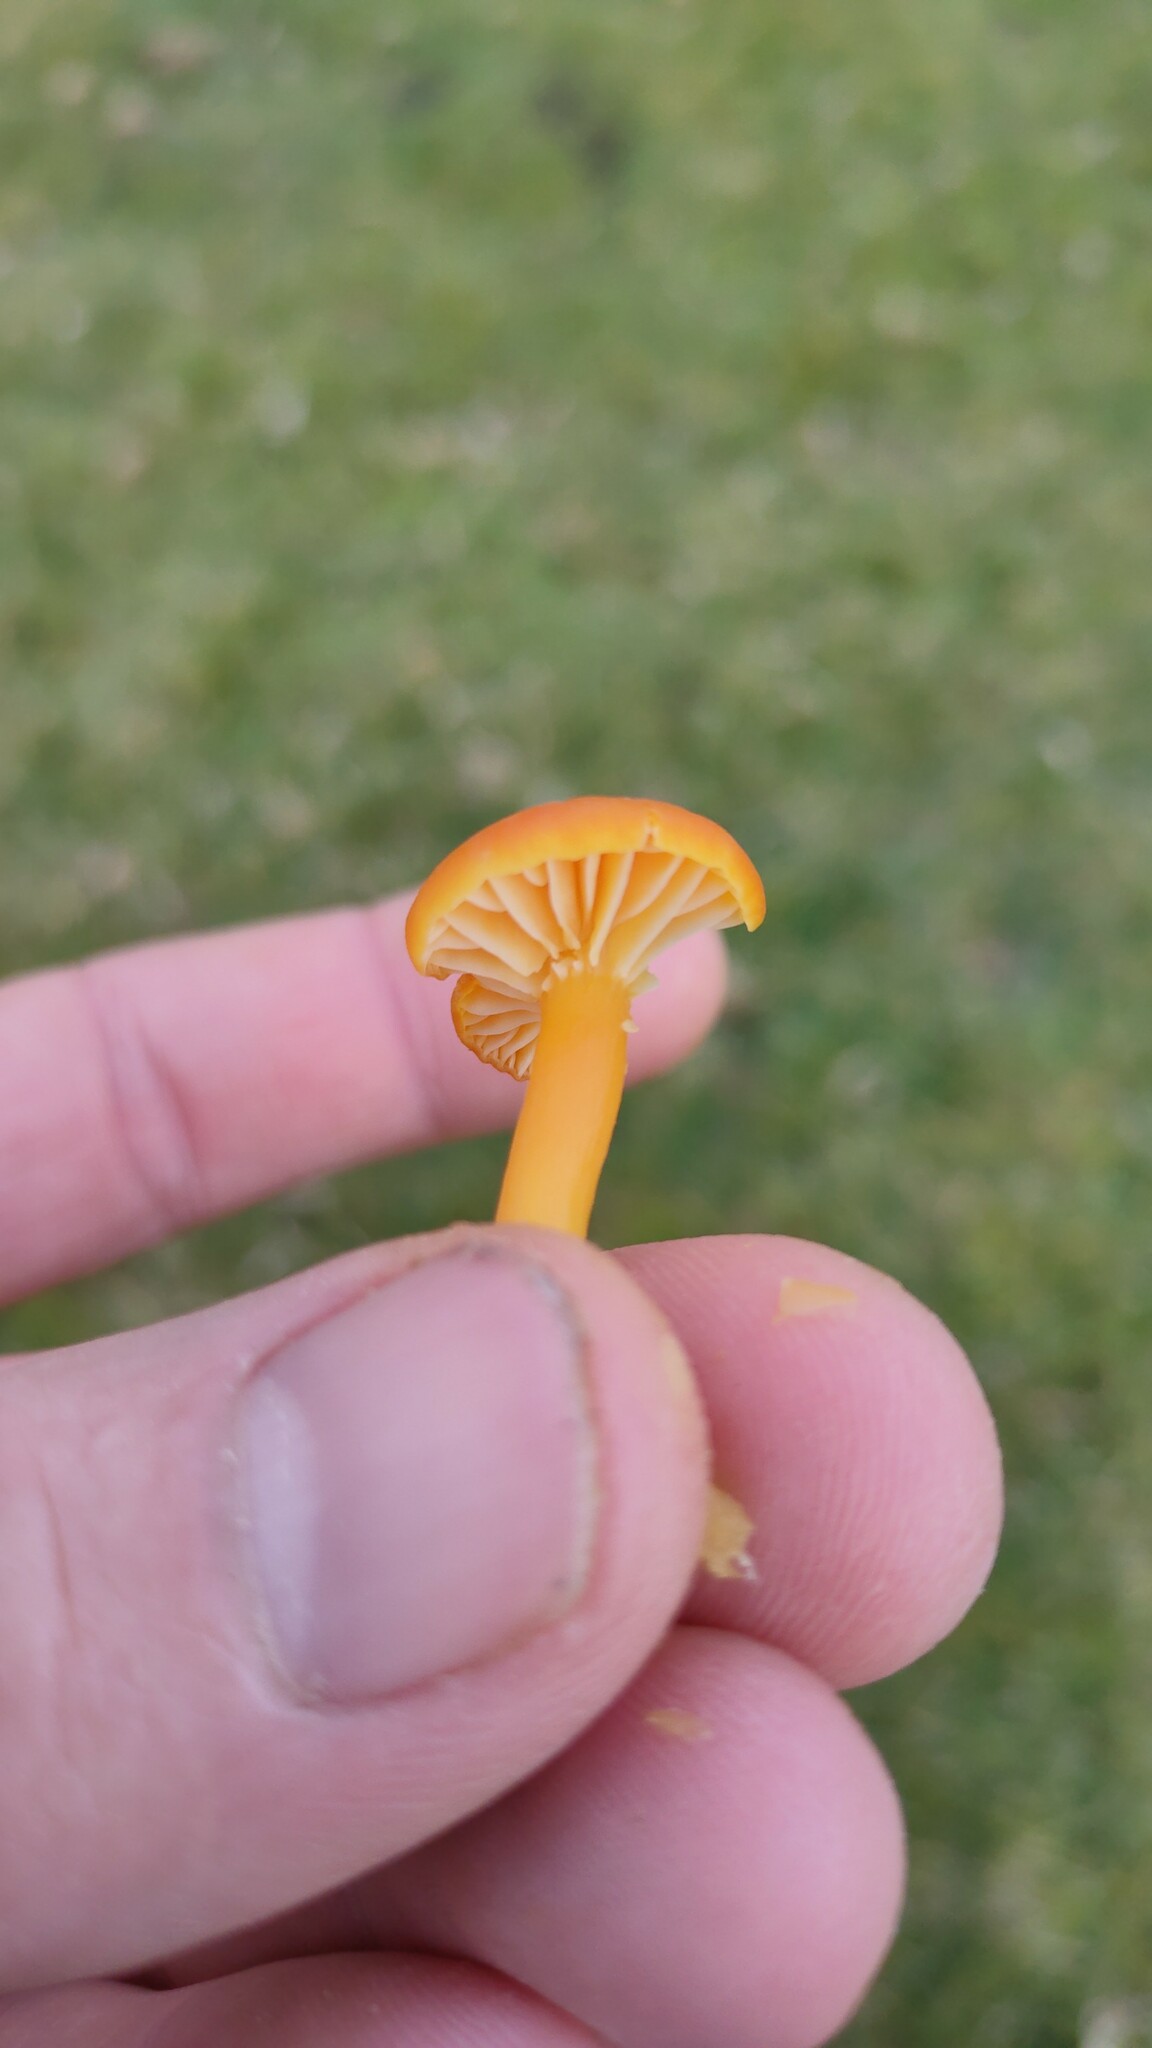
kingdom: Fungi
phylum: Basidiomycota
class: Agaricomycetes
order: Agaricales
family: Hygrophoraceae
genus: Hygrocybe
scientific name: Hygrocybe reidii
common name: Honey waxcap
